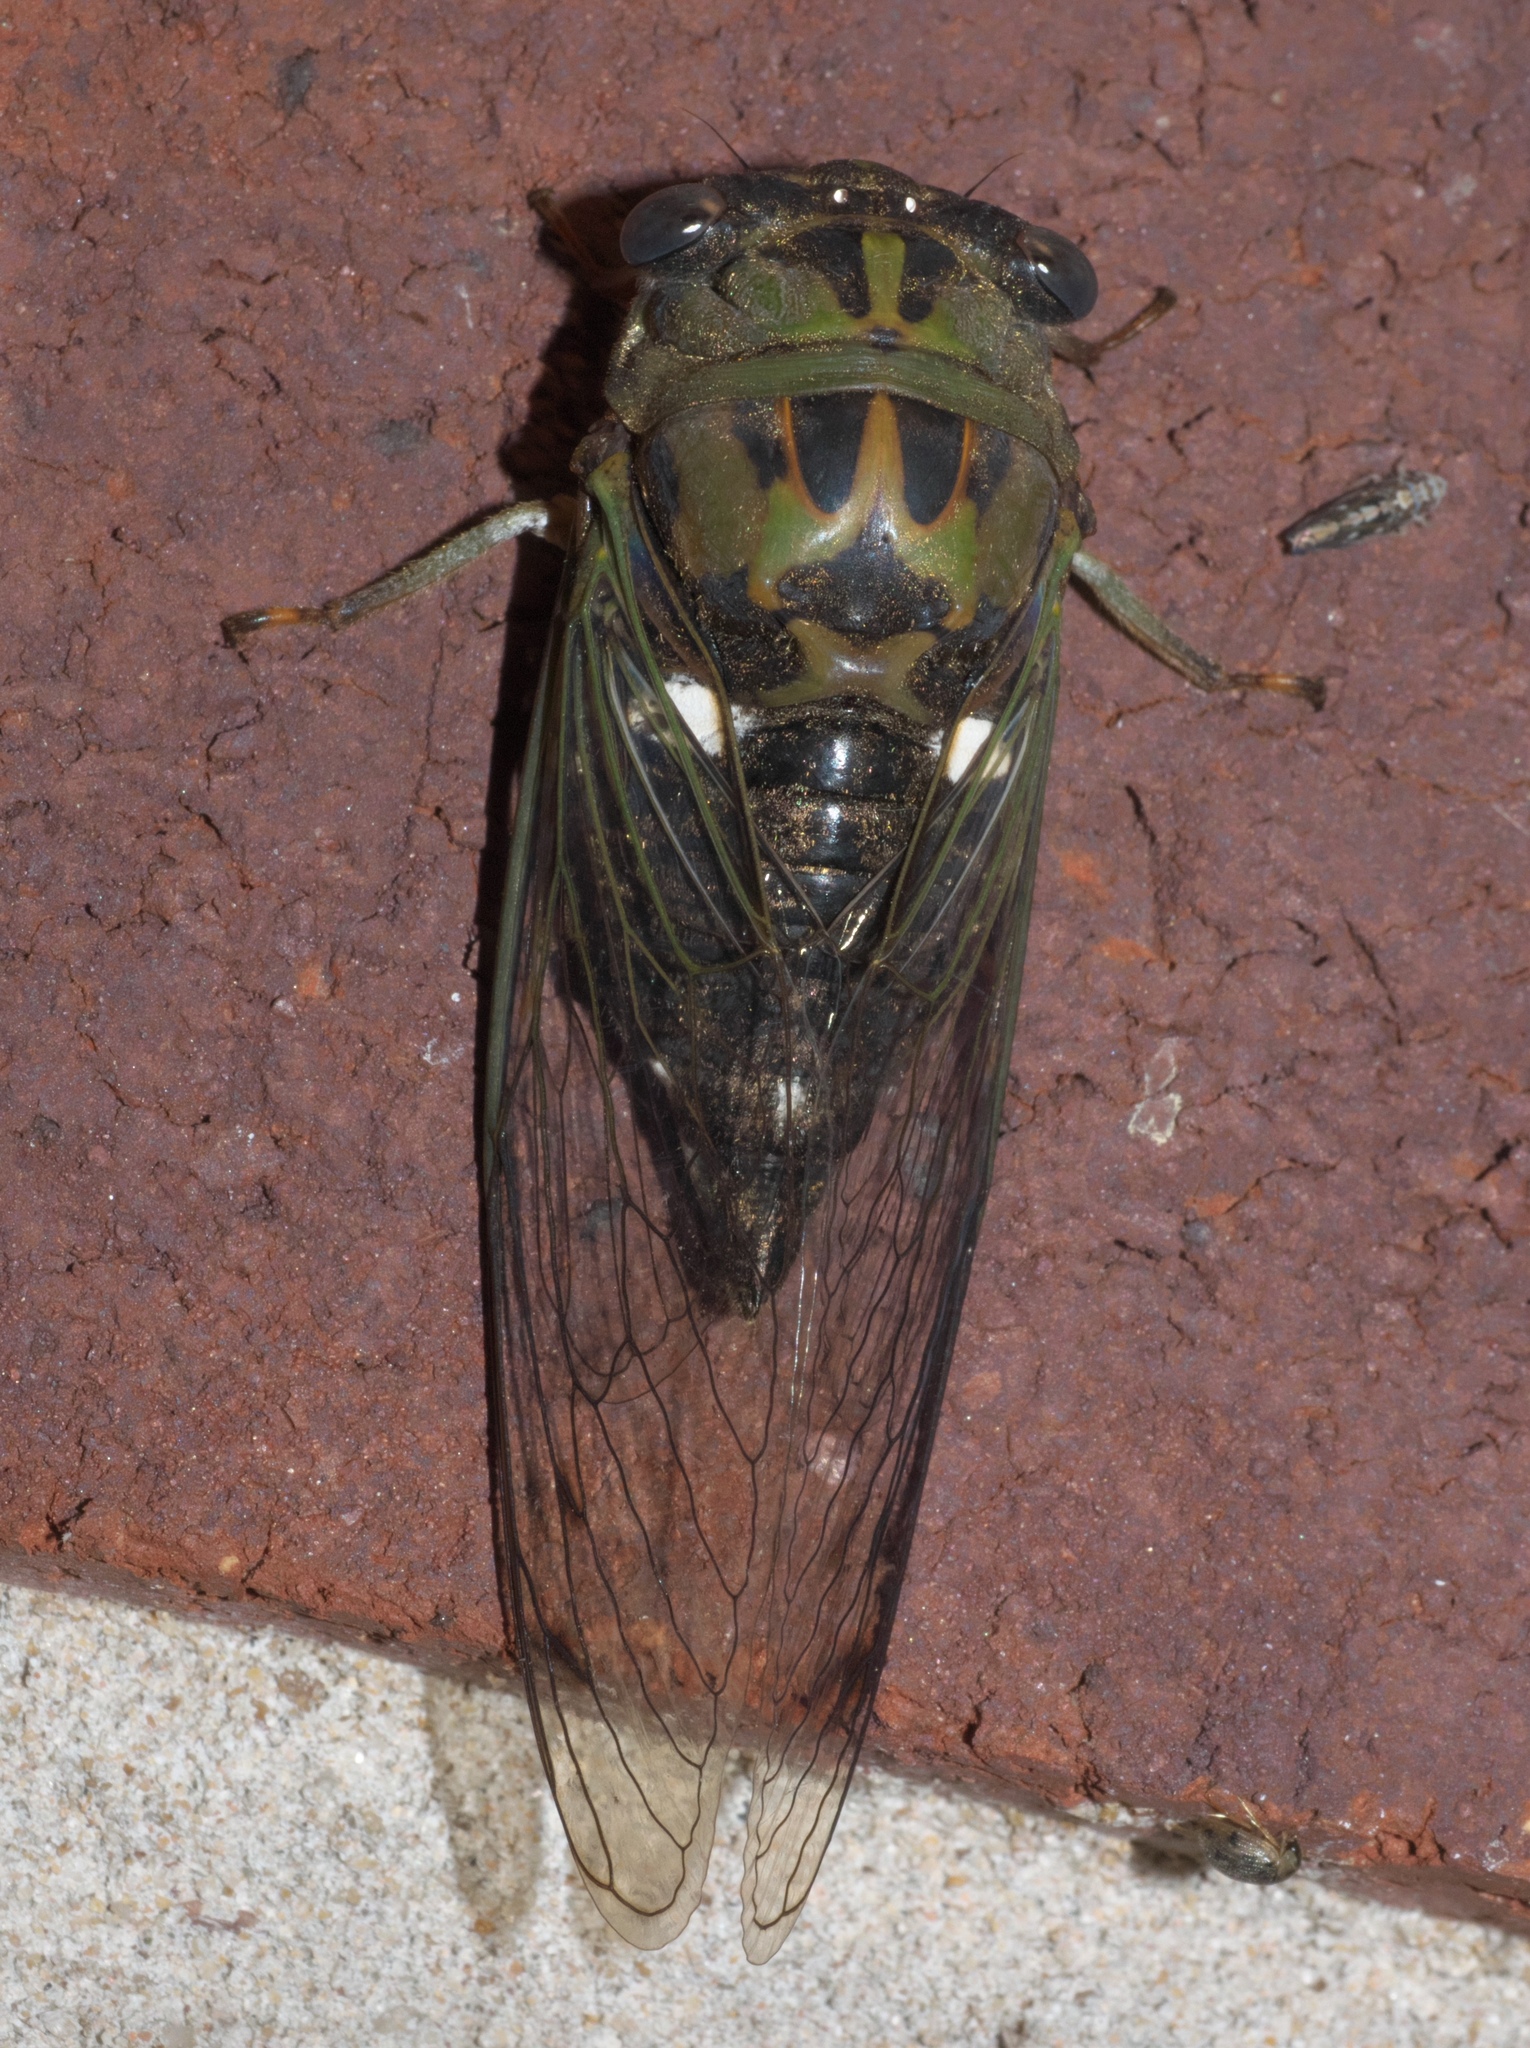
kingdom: Animalia
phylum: Arthropoda
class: Insecta
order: Hemiptera
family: Cicadidae
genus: Neotibicen
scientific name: Neotibicen pruinosus
